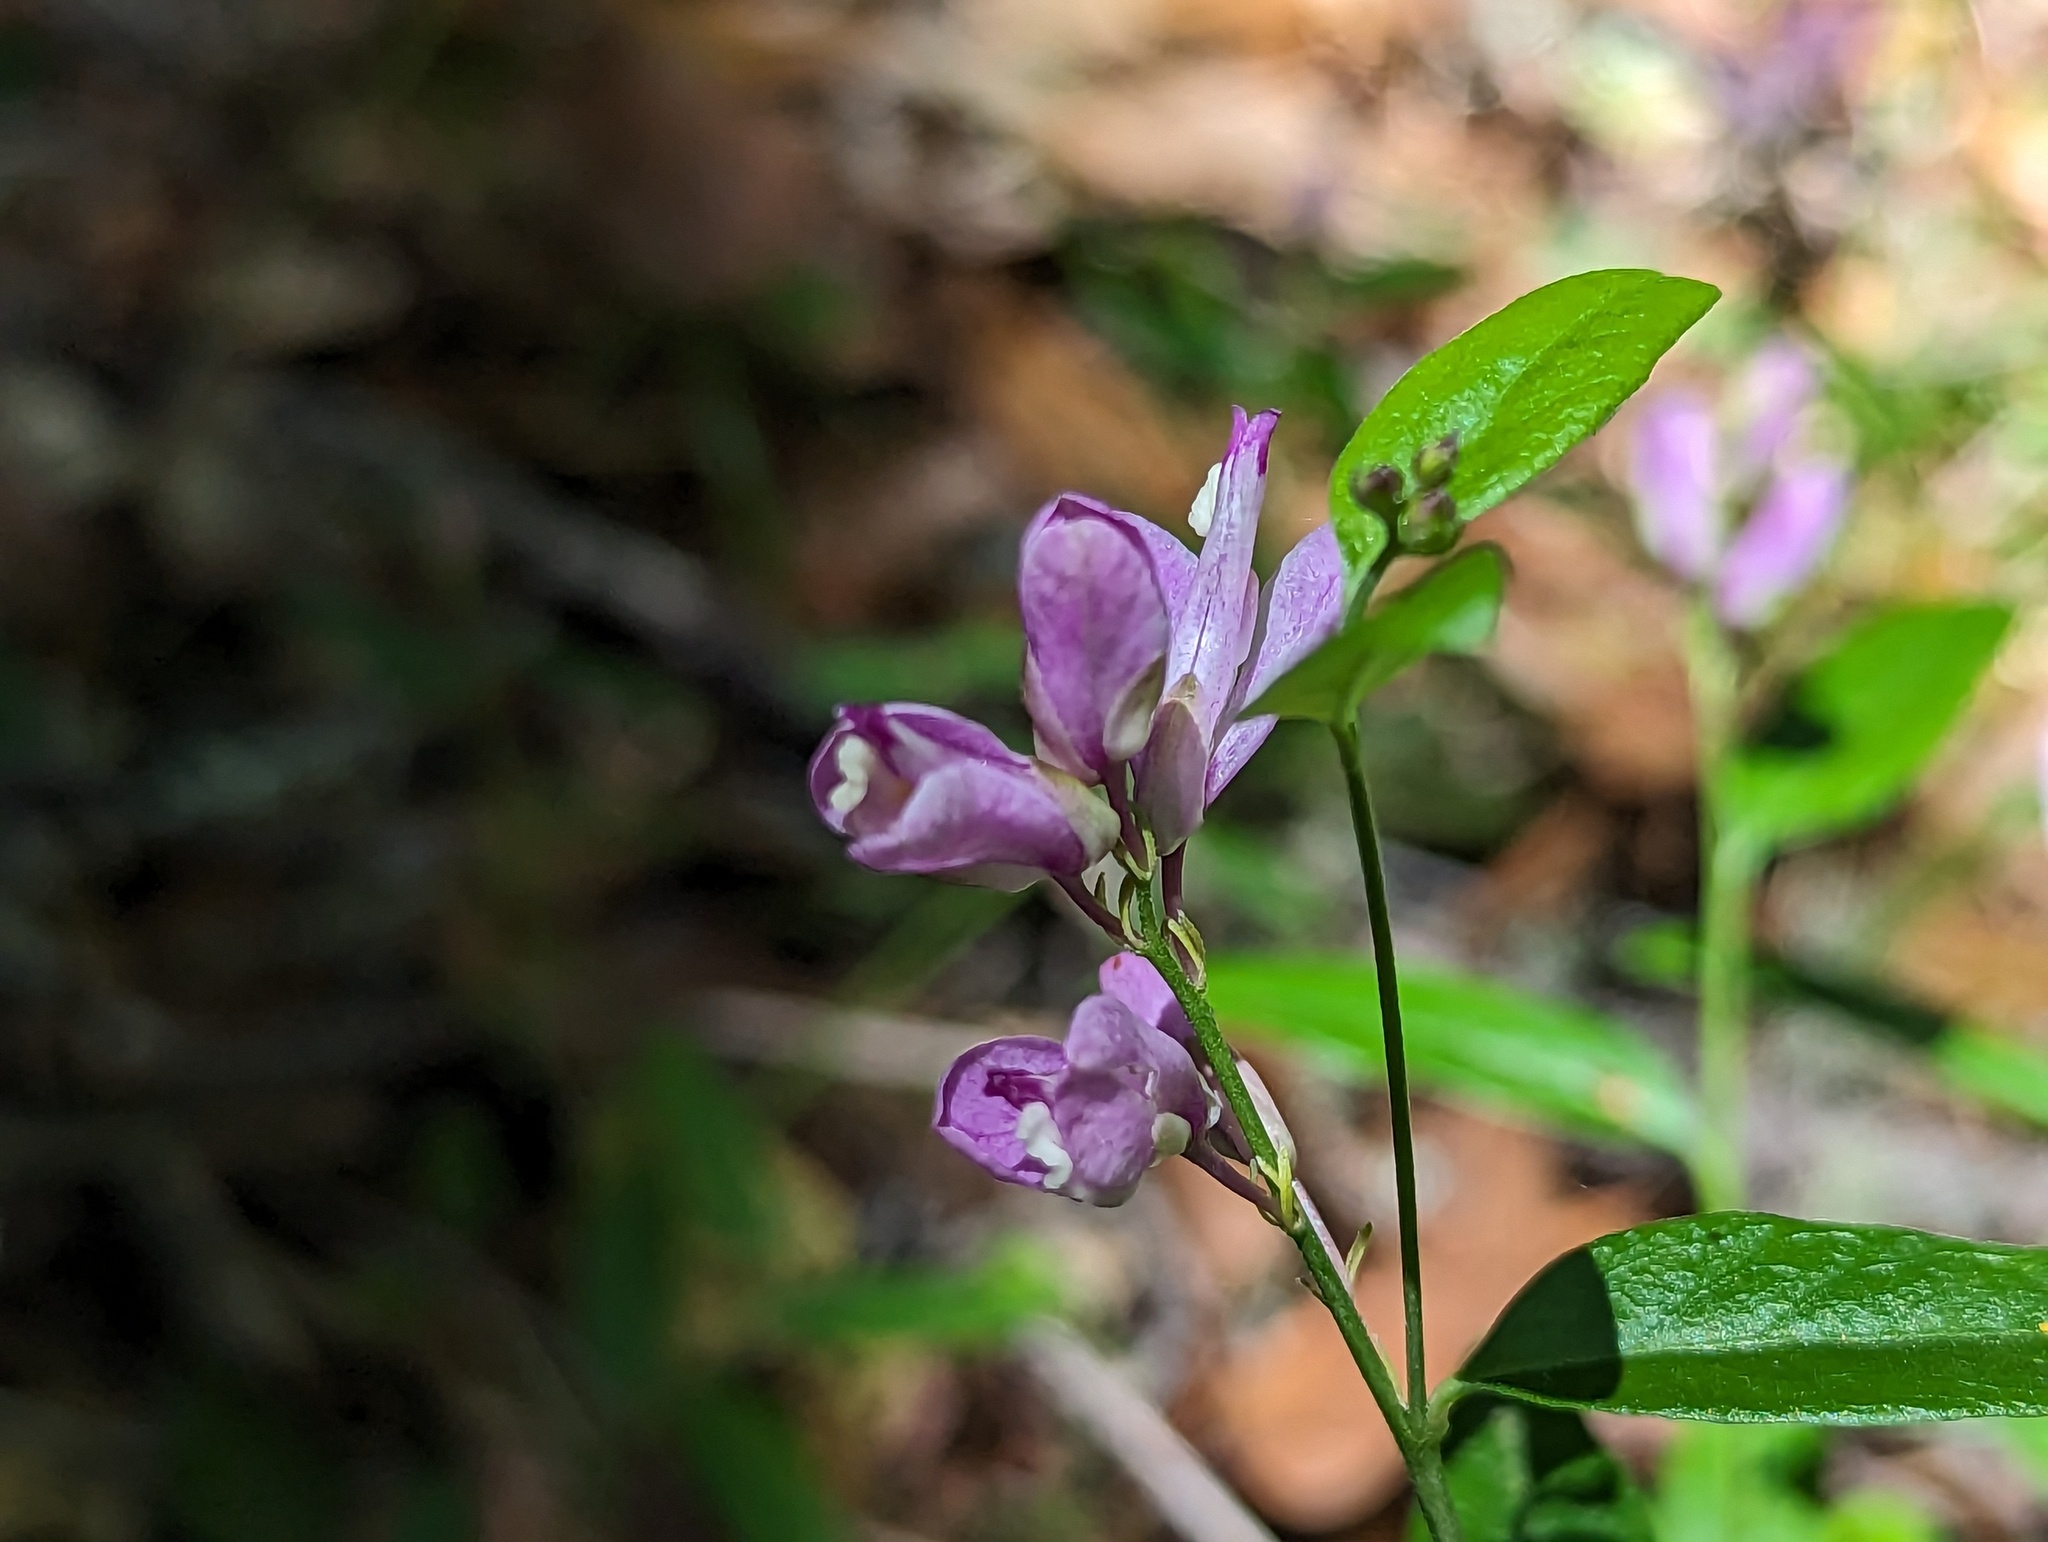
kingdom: Plantae
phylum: Tracheophyta
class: Magnoliopsida
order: Fabales
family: Polygalaceae
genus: Rhinotropis
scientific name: Rhinotropis californica
